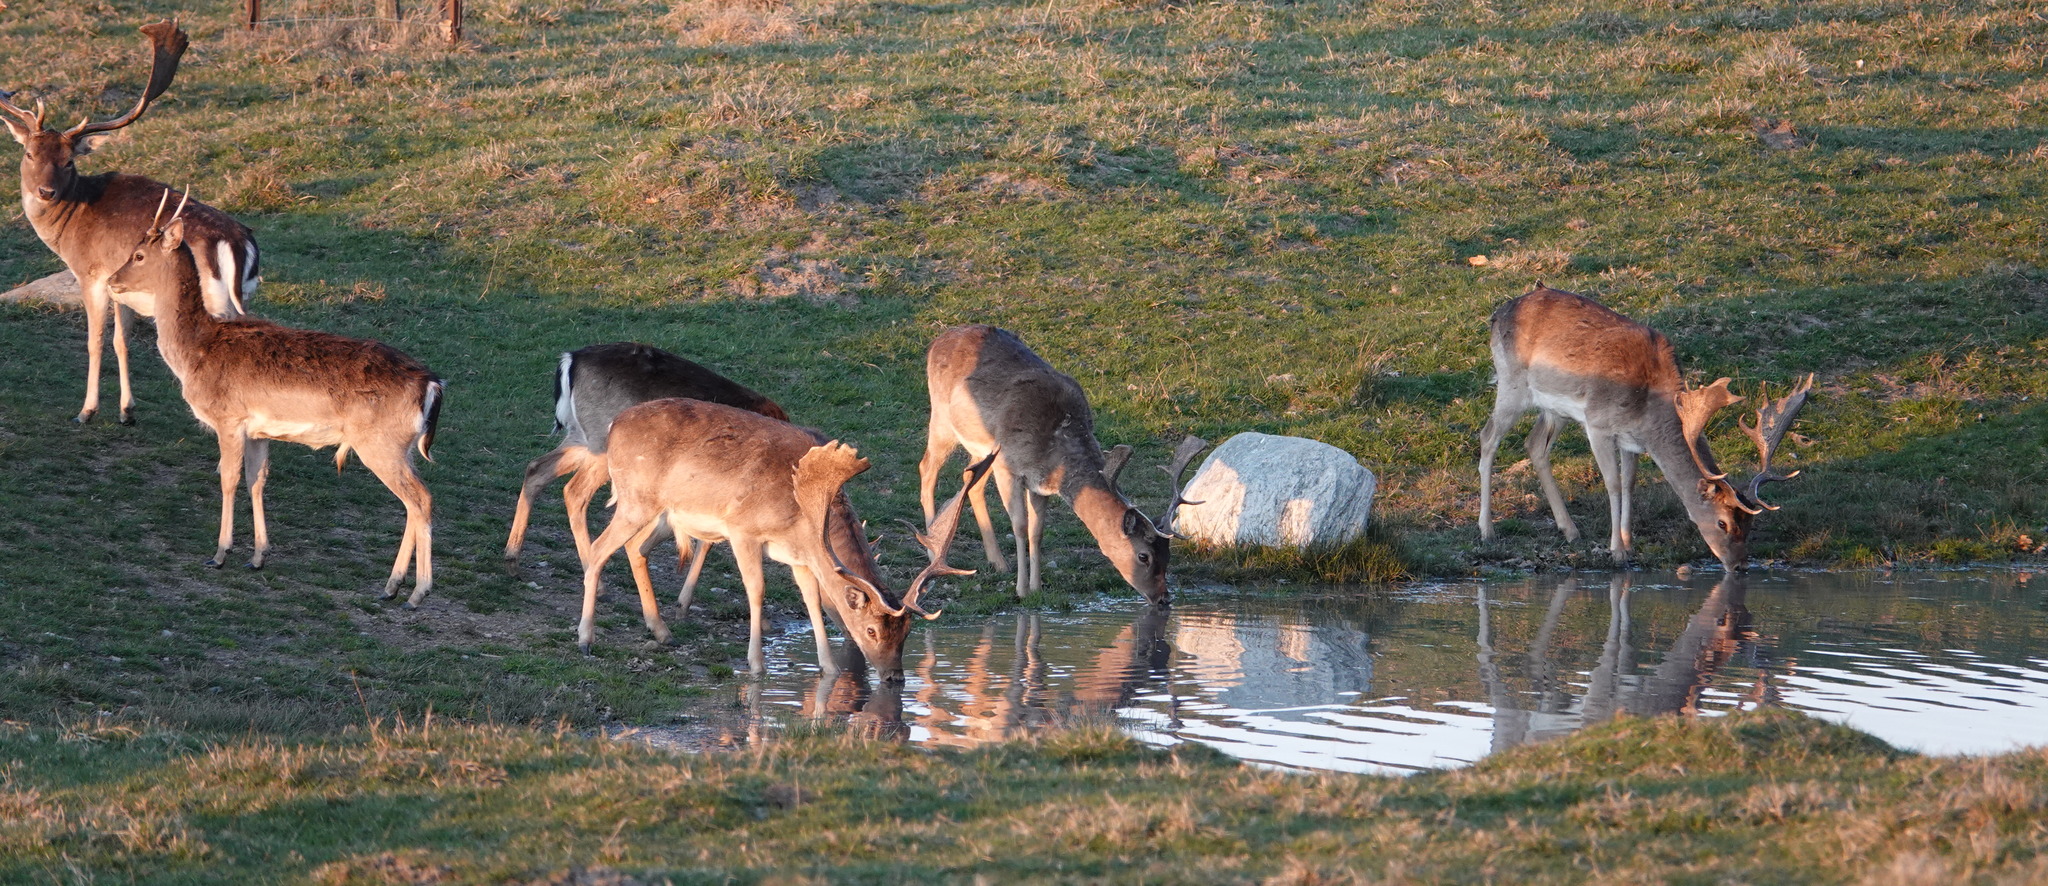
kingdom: Animalia
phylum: Chordata
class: Mammalia
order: Artiodactyla
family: Cervidae
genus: Dama
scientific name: Dama dama
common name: Fallow deer
